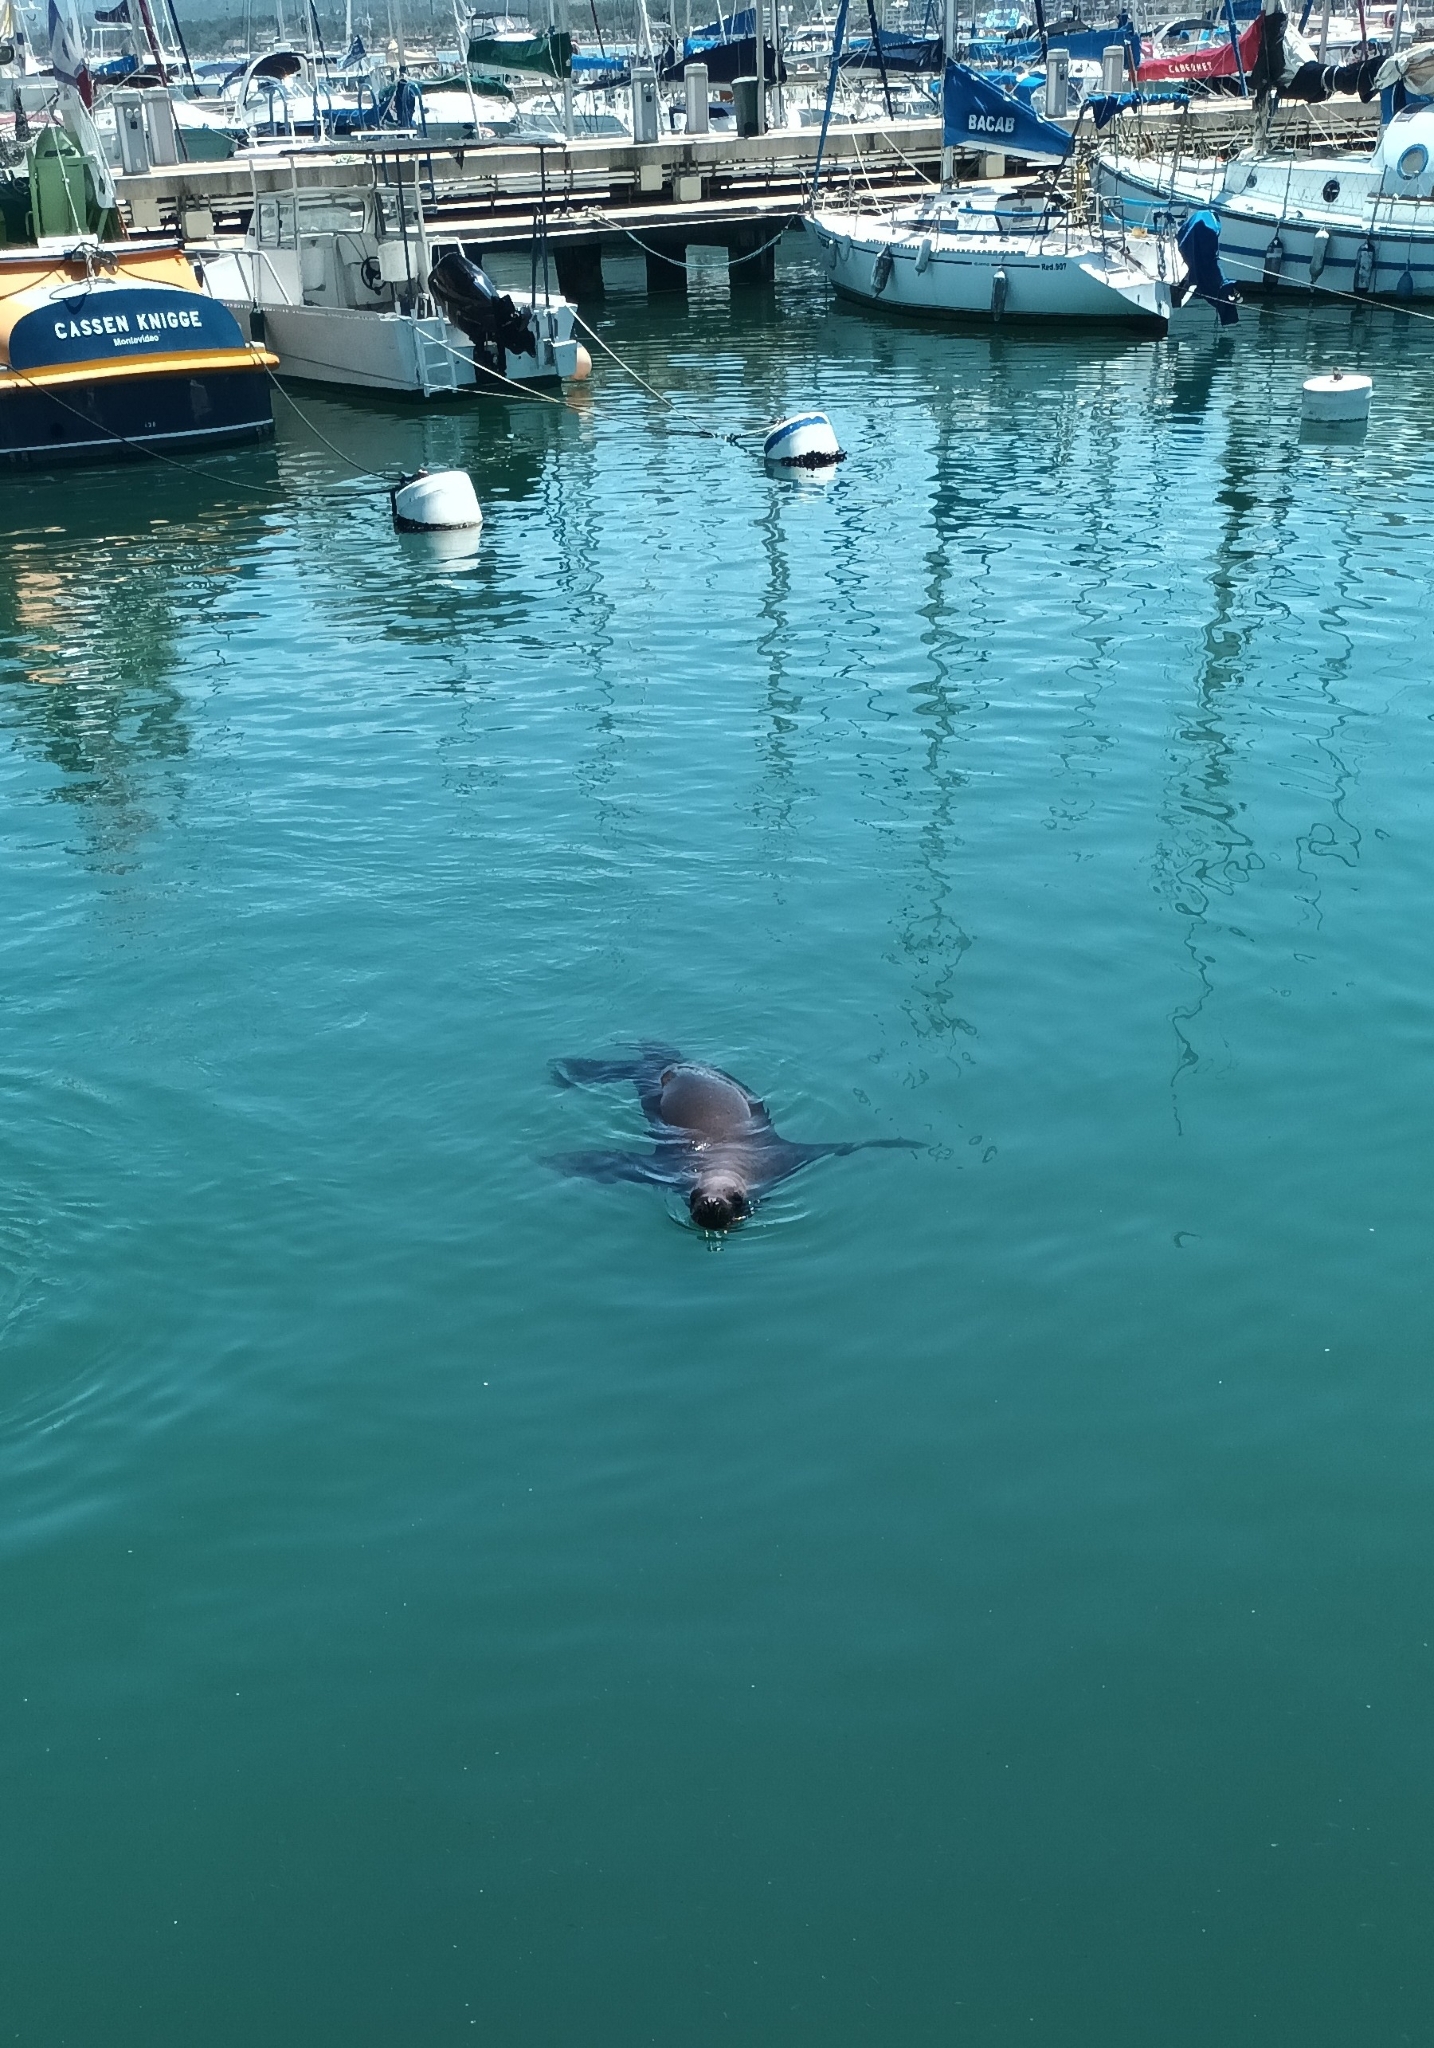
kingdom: Animalia
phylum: Chordata
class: Mammalia
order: Carnivora
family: Otariidae
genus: Otaria
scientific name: Otaria byronia
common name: South american sea lion
